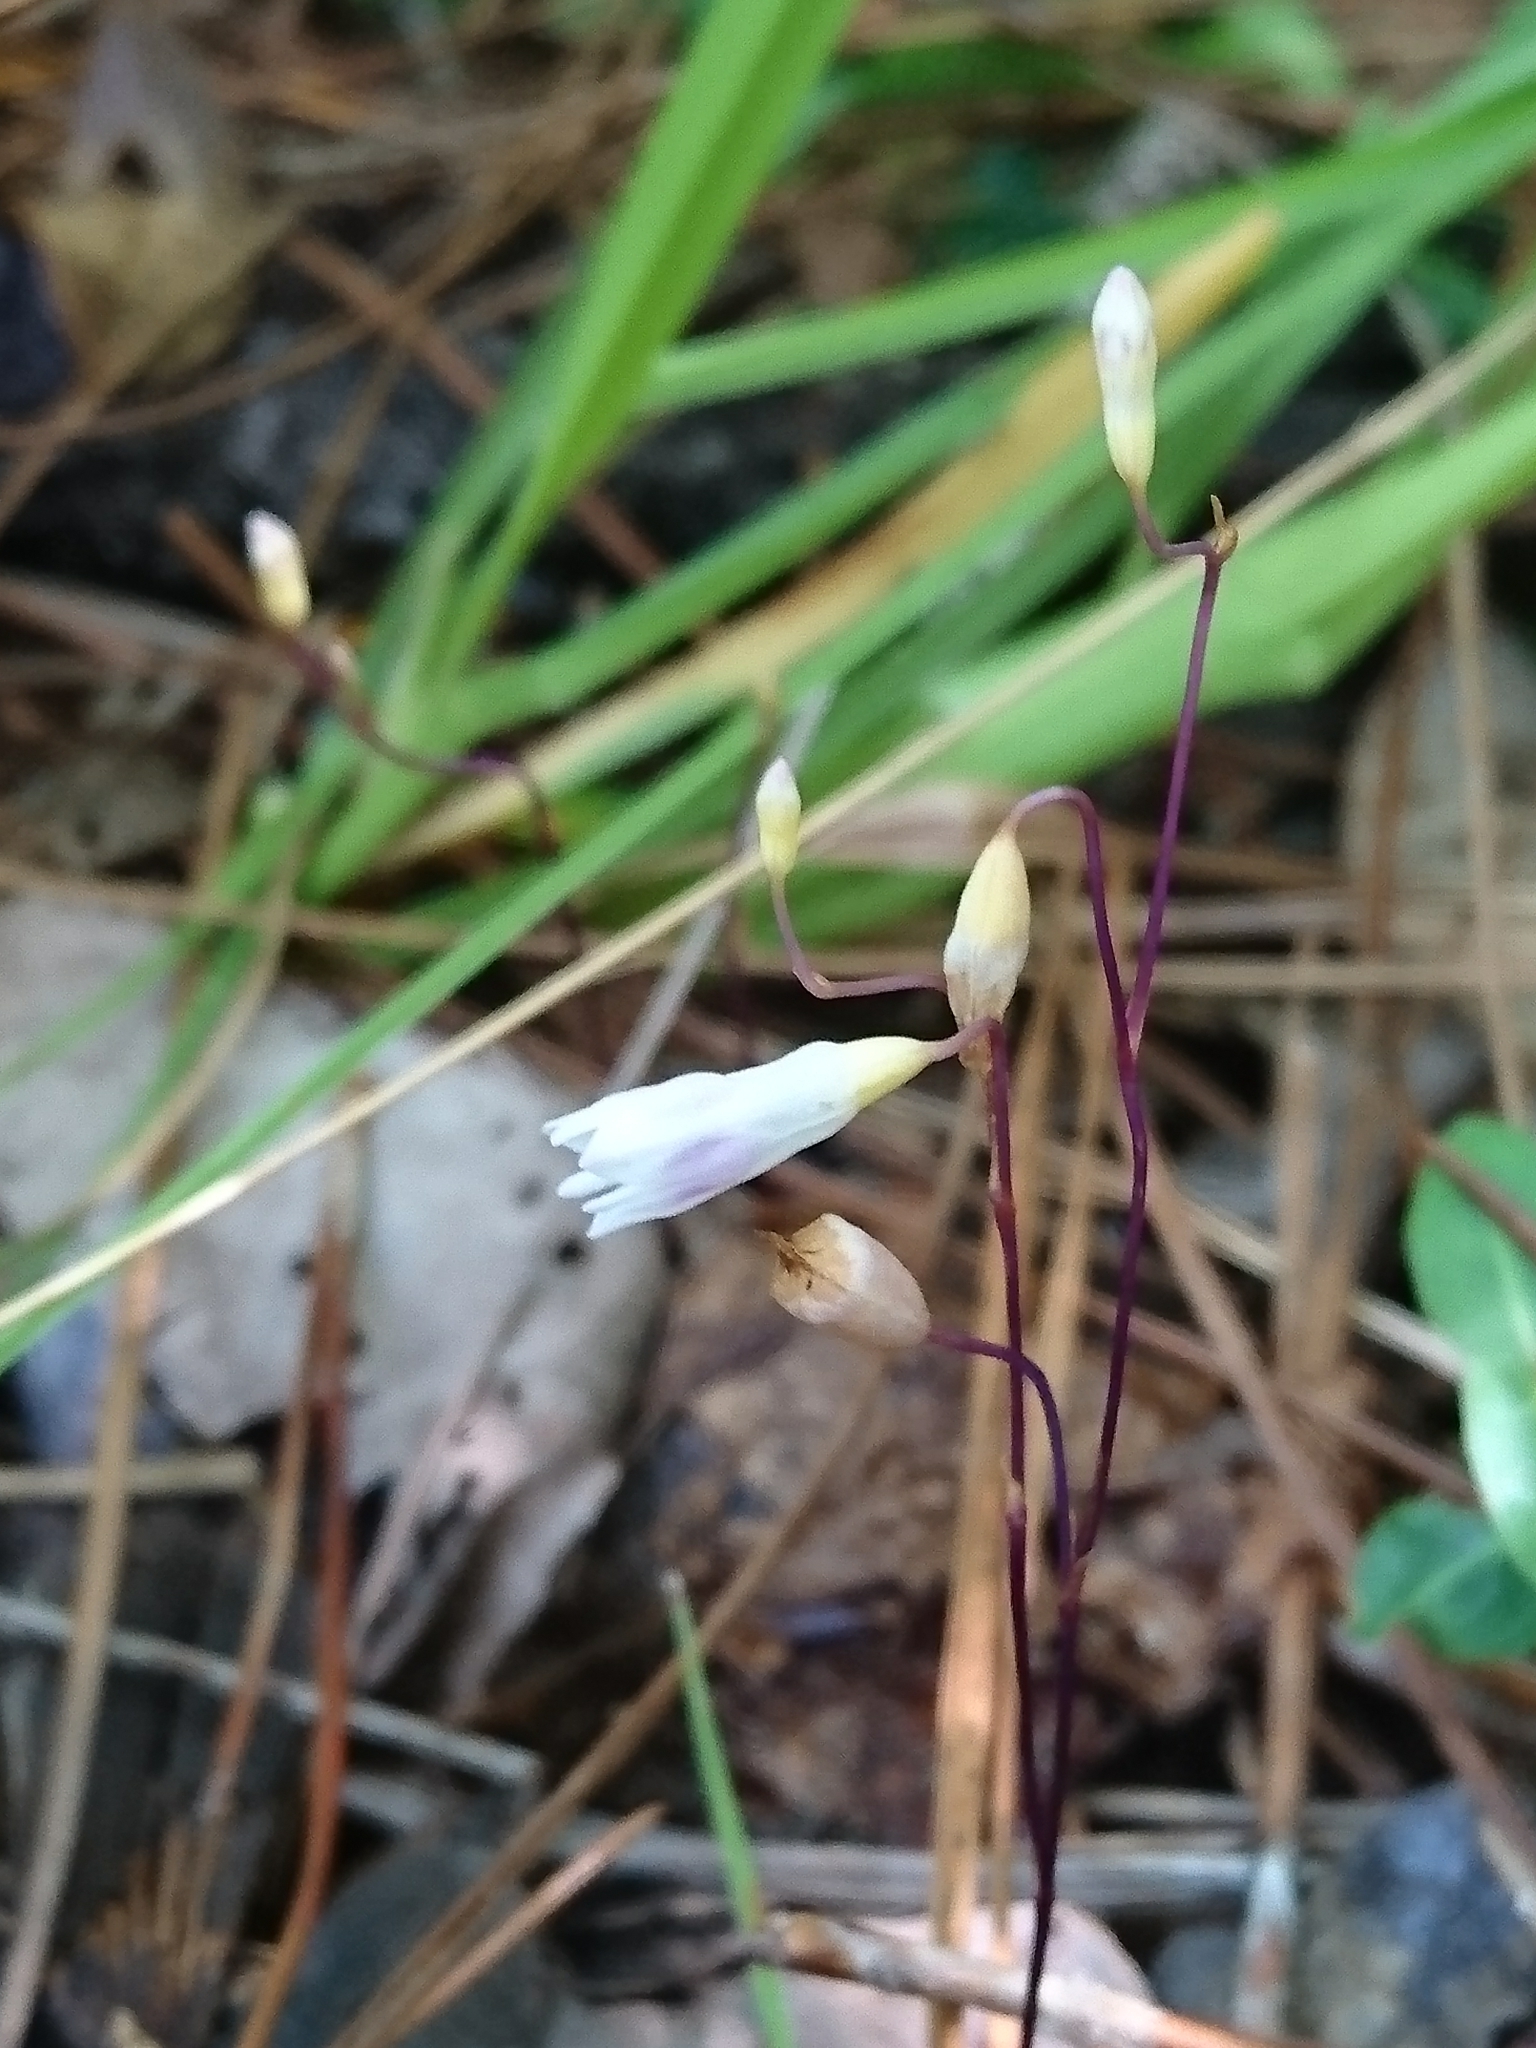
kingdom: Plantae
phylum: Tracheophyta
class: Liliopsida
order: Dioscoreales
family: Burmanniaceae
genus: Apteria
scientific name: Apteria aphylla
